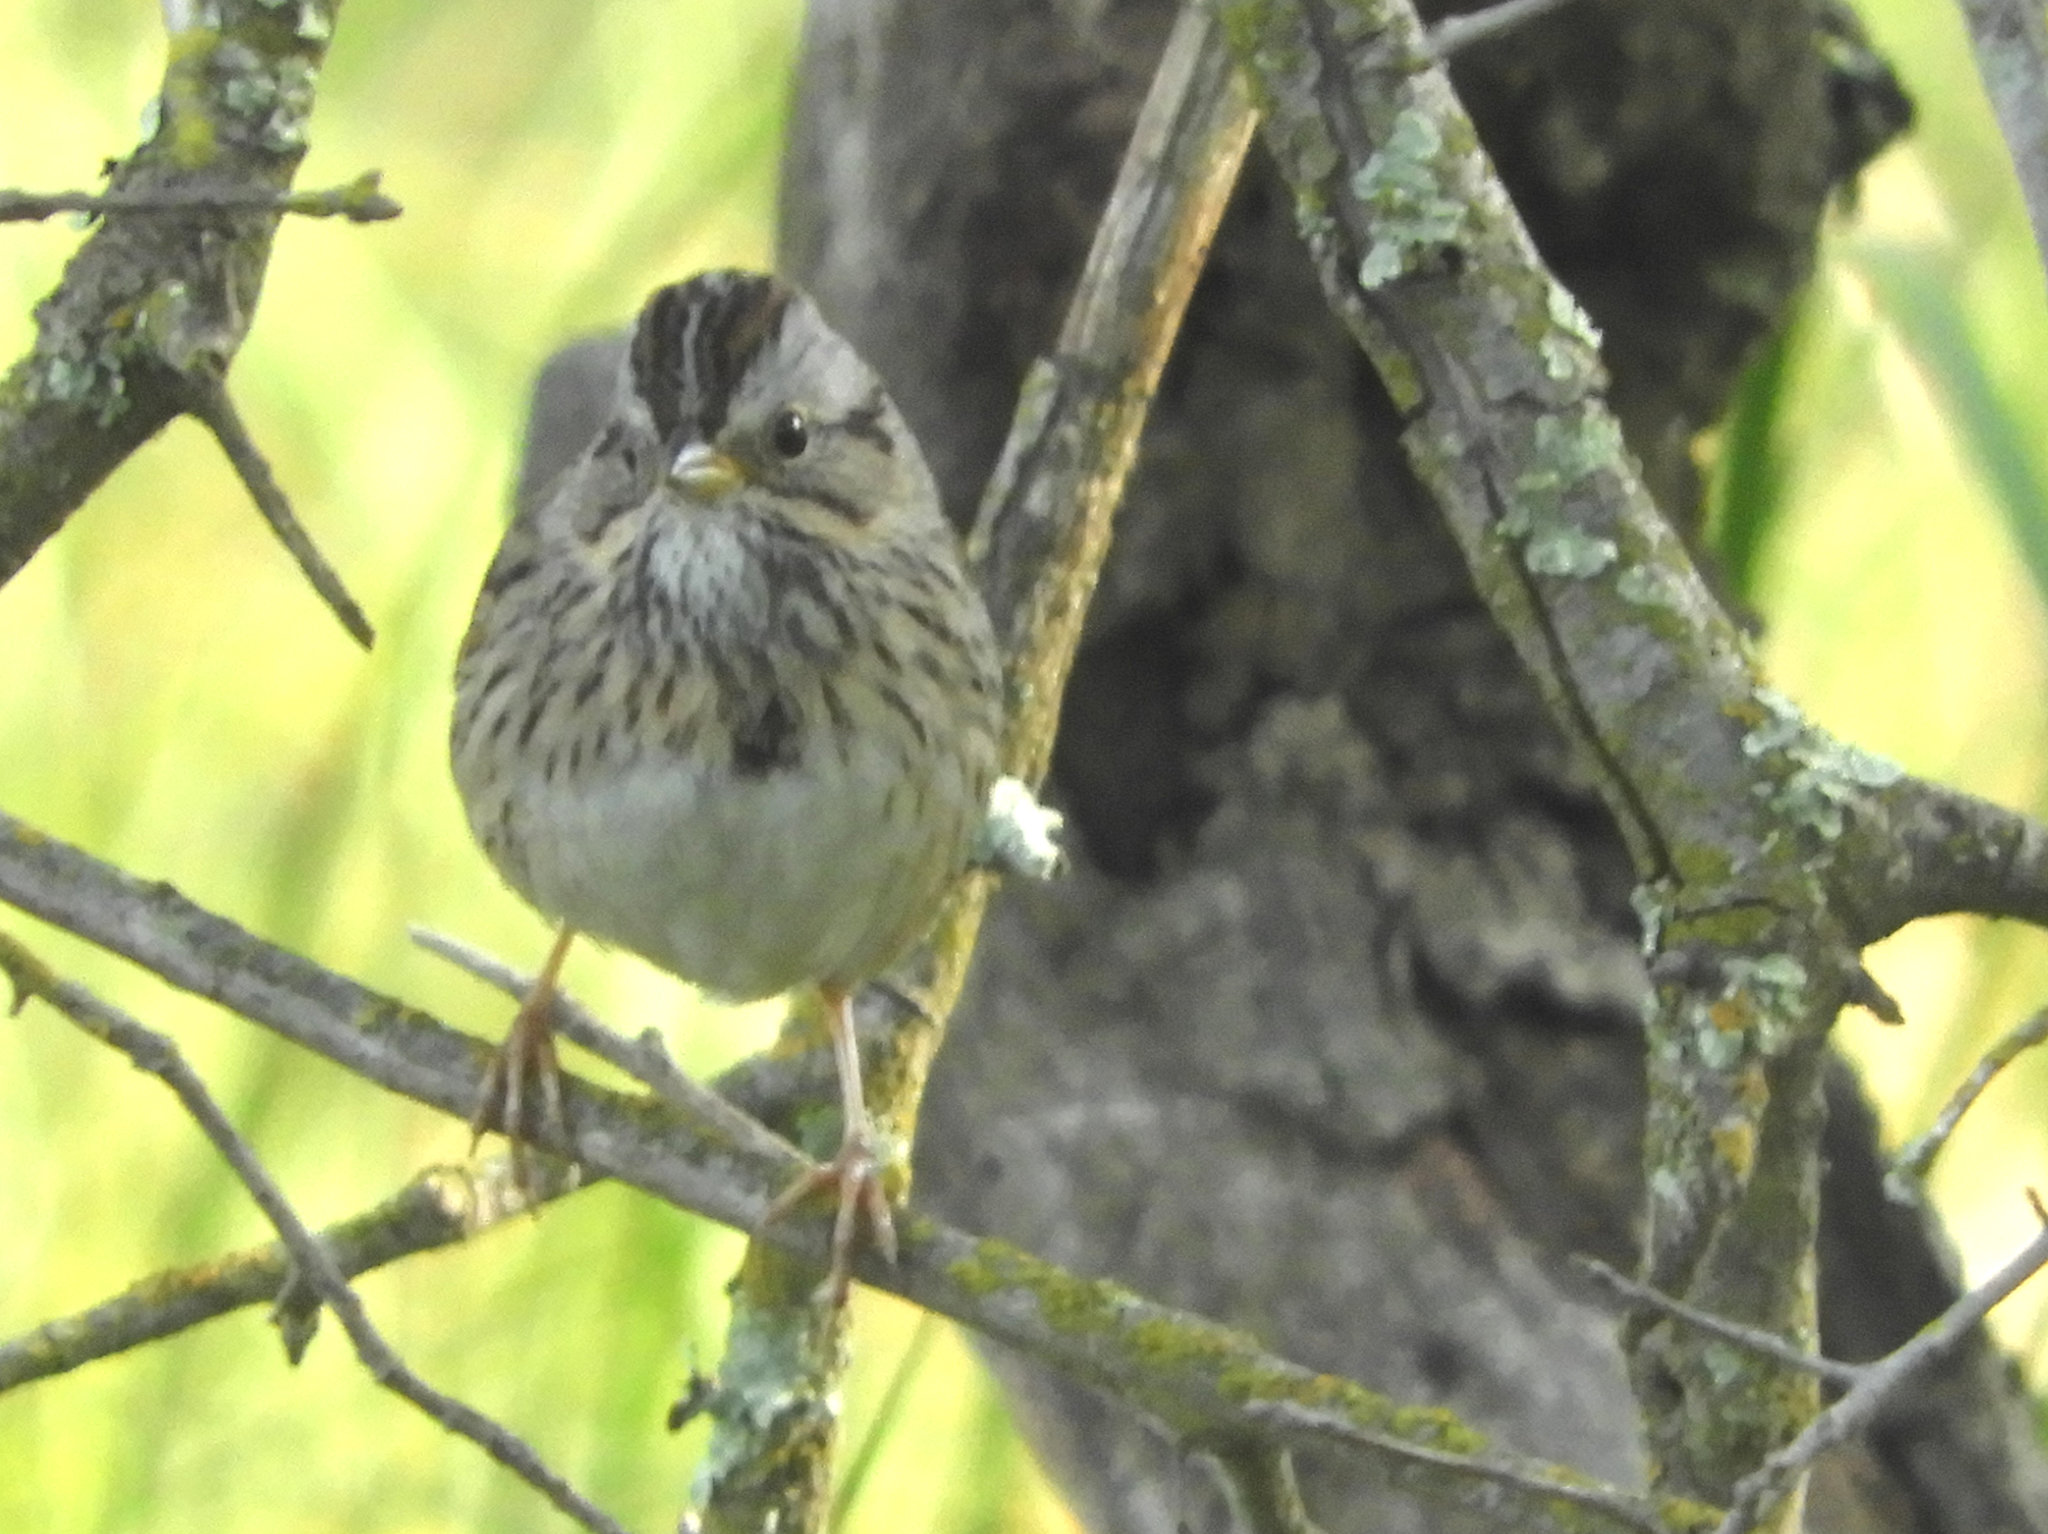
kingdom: Animalia
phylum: Chordata
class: Aves
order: Passeriformes
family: Passerellidae
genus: Melospiza
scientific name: Melospiza lincolnii
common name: Lincoln's sparrow
